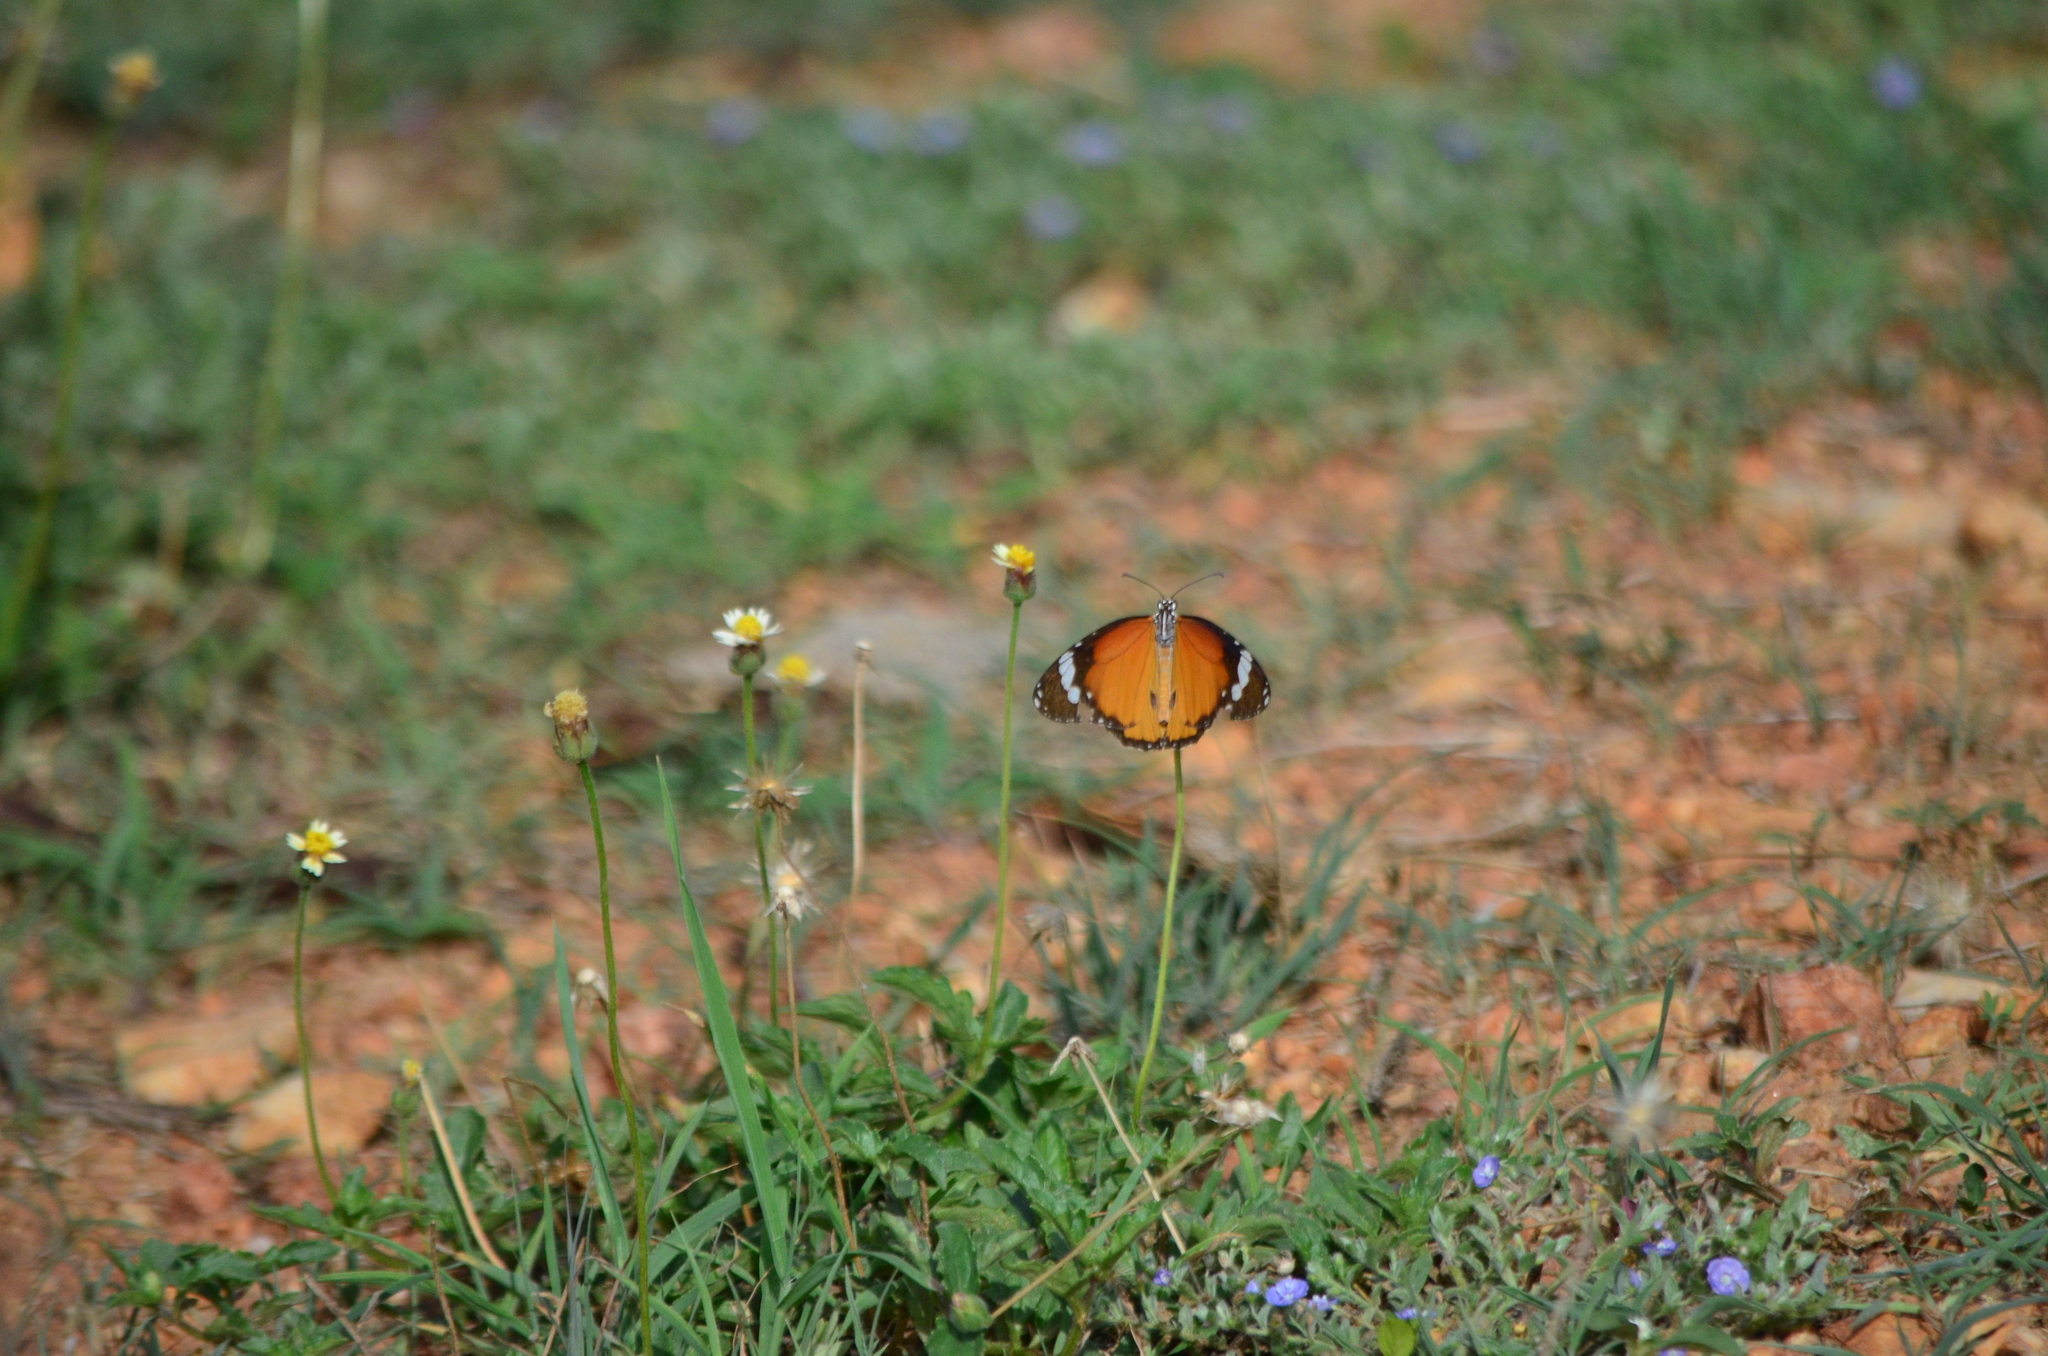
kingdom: Animalia
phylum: Arthropoda
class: Insecta
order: Lepidoptera
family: Nymphalidae
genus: Danaus
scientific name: Danaus chrysippus
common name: Plain tiger
